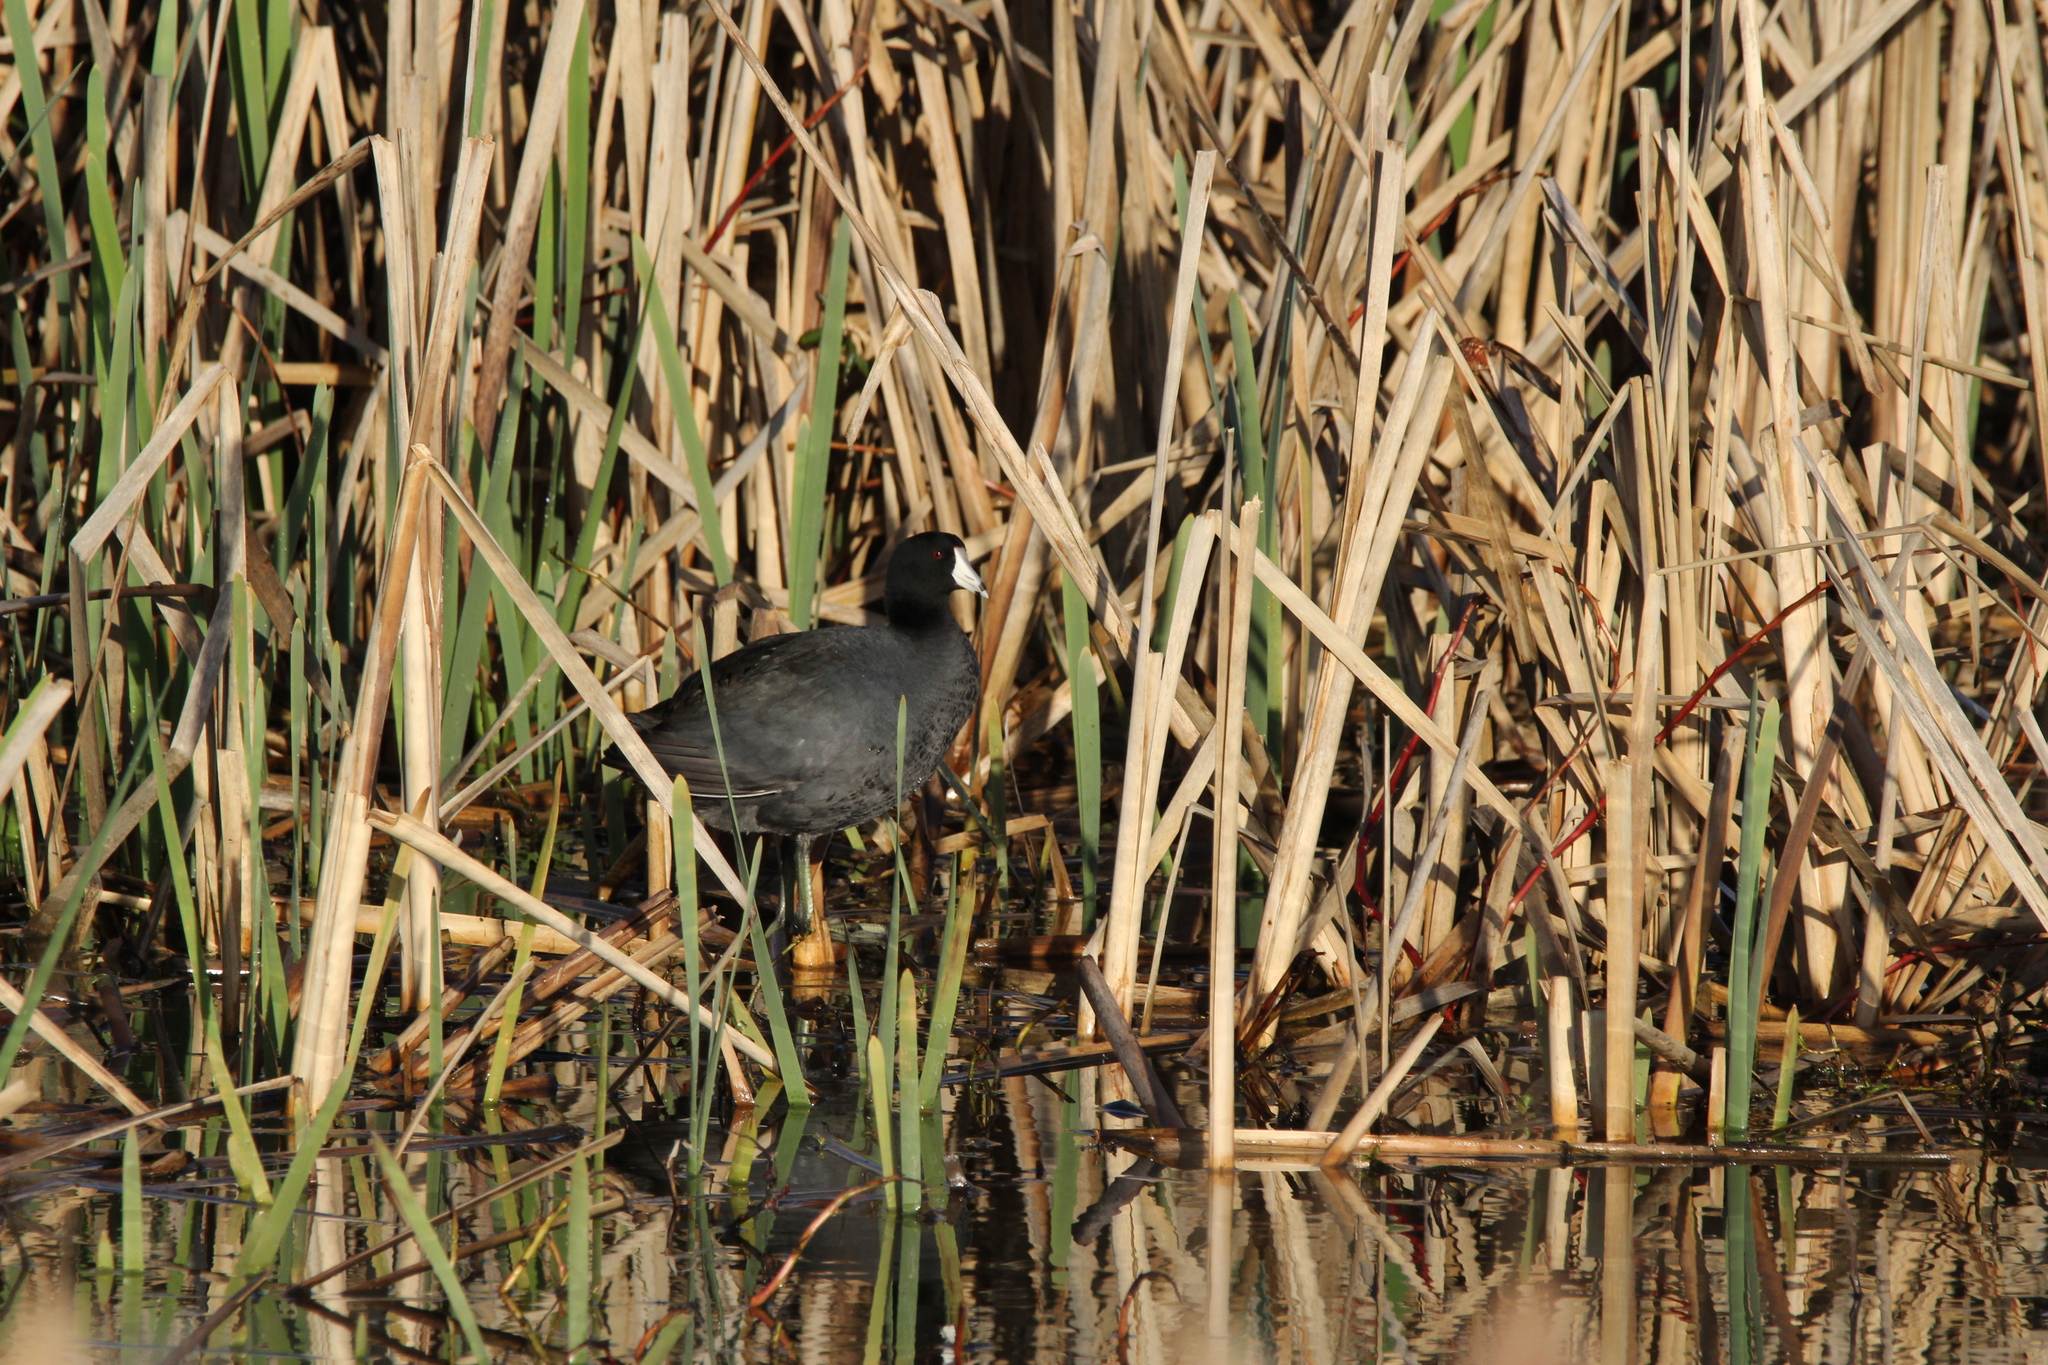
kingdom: Animalia
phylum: Chordata
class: Aves
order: Gruiformes
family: Rallidae
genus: Fulica
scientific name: Fulica americana
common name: American coot
